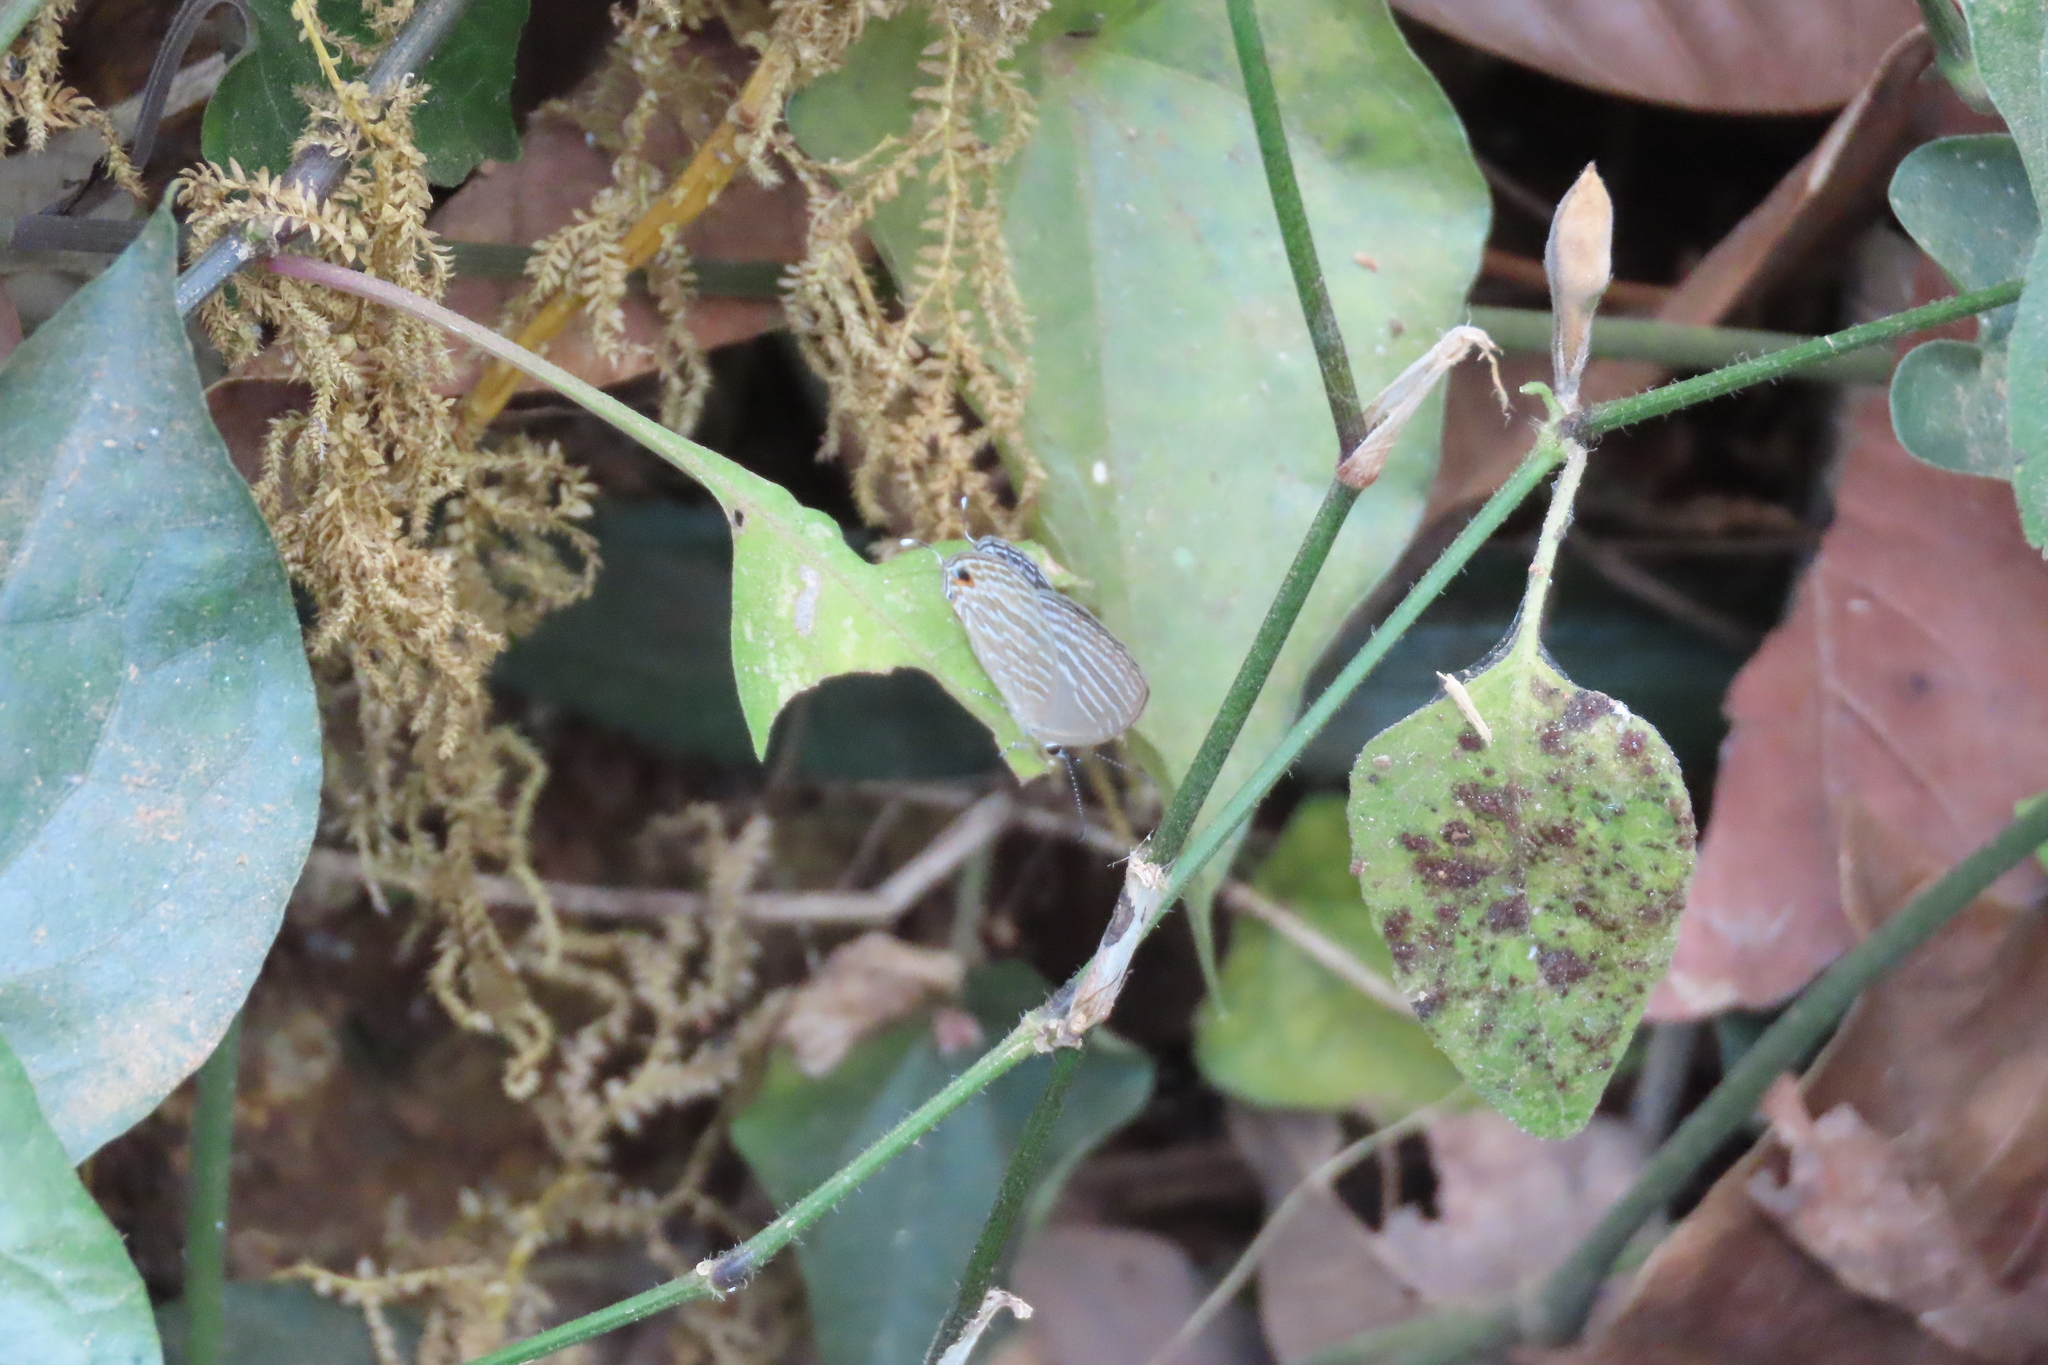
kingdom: Animalia
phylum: Arthropoda
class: Insecta
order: Lepidoptera
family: Lycaenidae
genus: Jamides
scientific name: Jamides celeno
